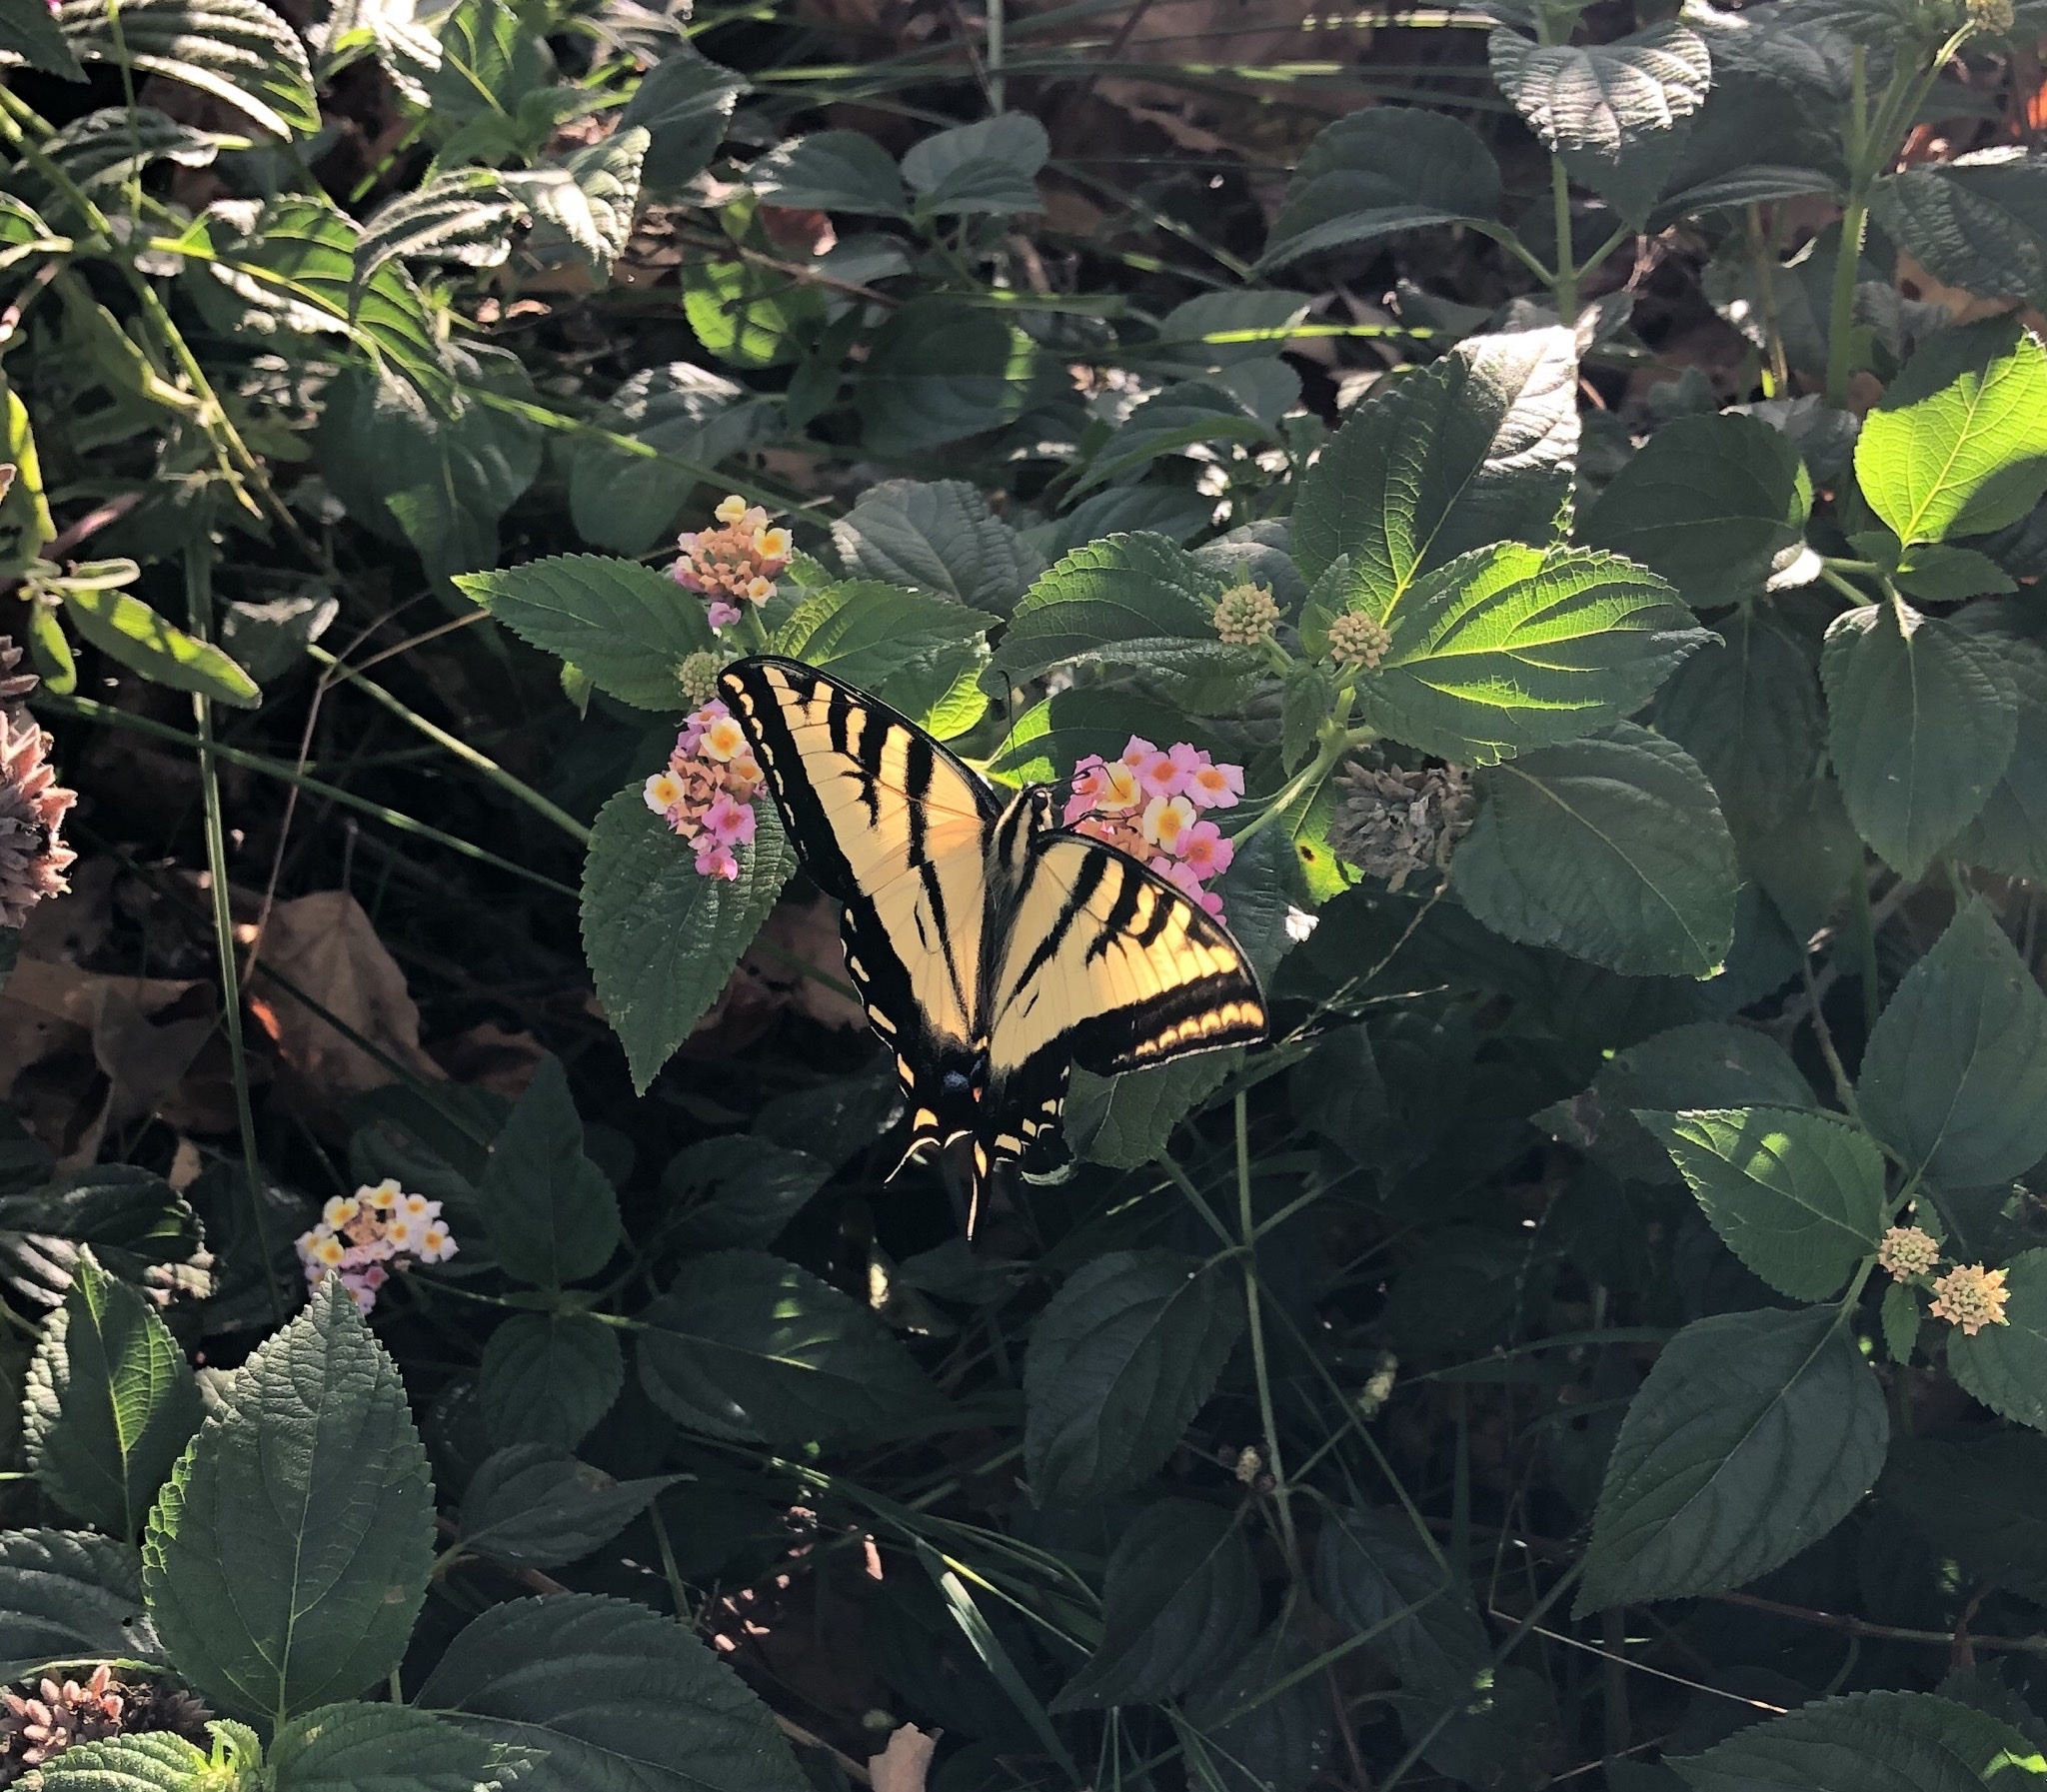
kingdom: Animalia
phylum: Arthropoda
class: Insecta
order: Lepidoptera
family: Papilionidae
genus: Papilio
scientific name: Papilio rutulus
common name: Western tiger swallowtail
